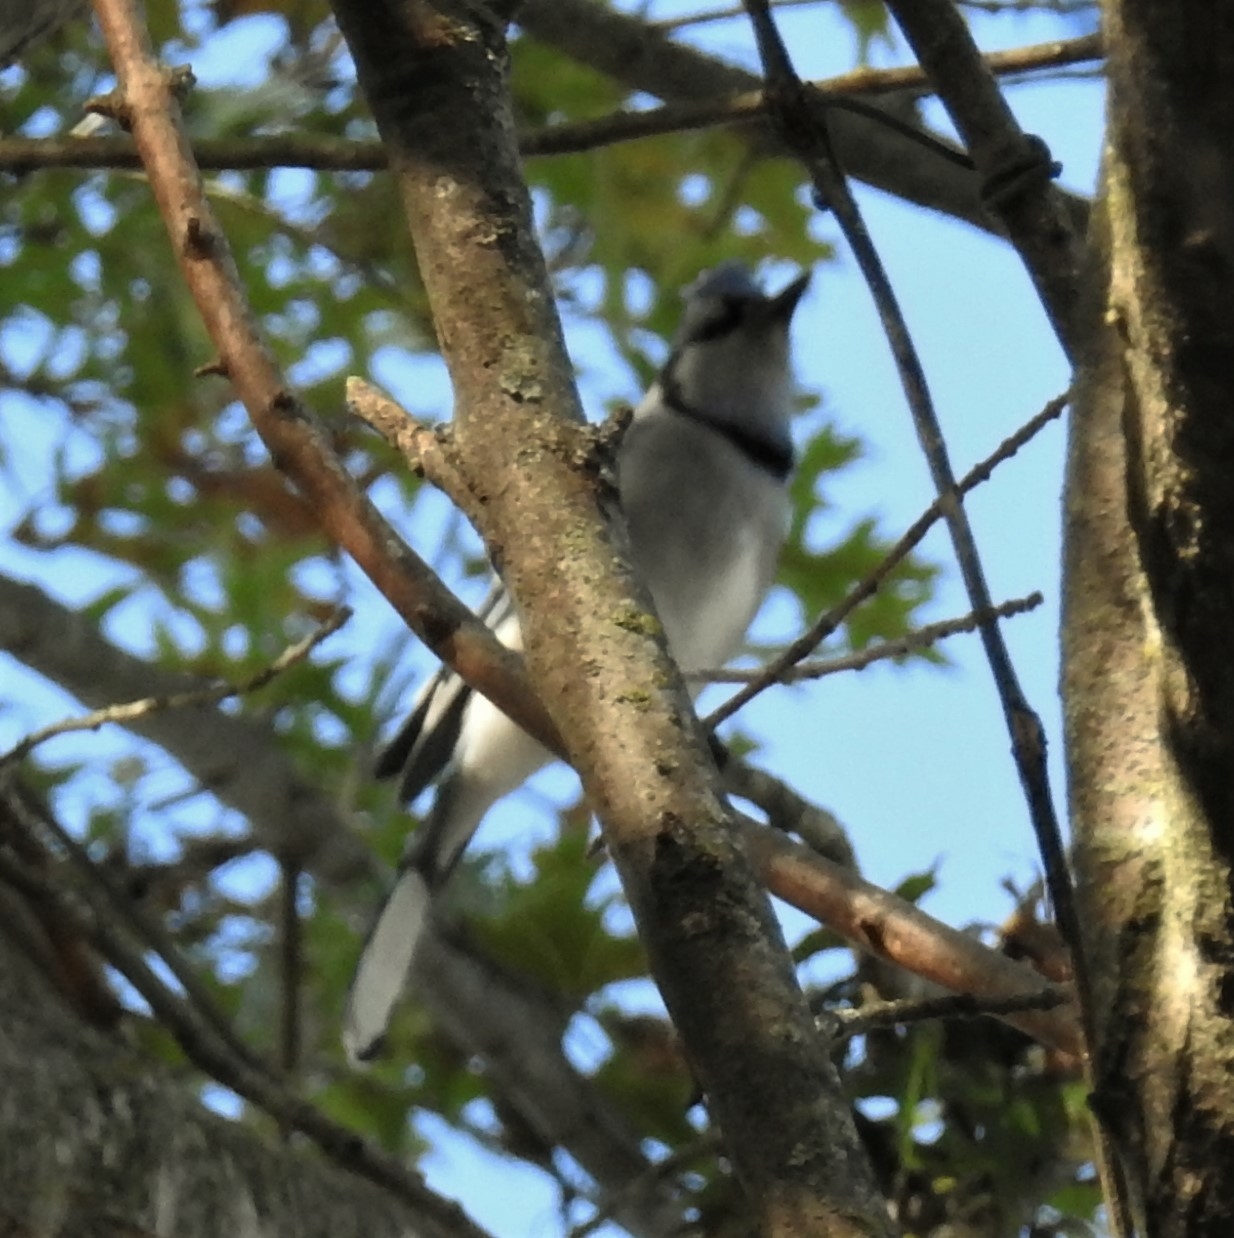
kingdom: Animalia
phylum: Chordata
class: Aves
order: Passeriformes
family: Corvidae
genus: Cyanocitta
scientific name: Cyanocitta cristata
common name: Blue jay
